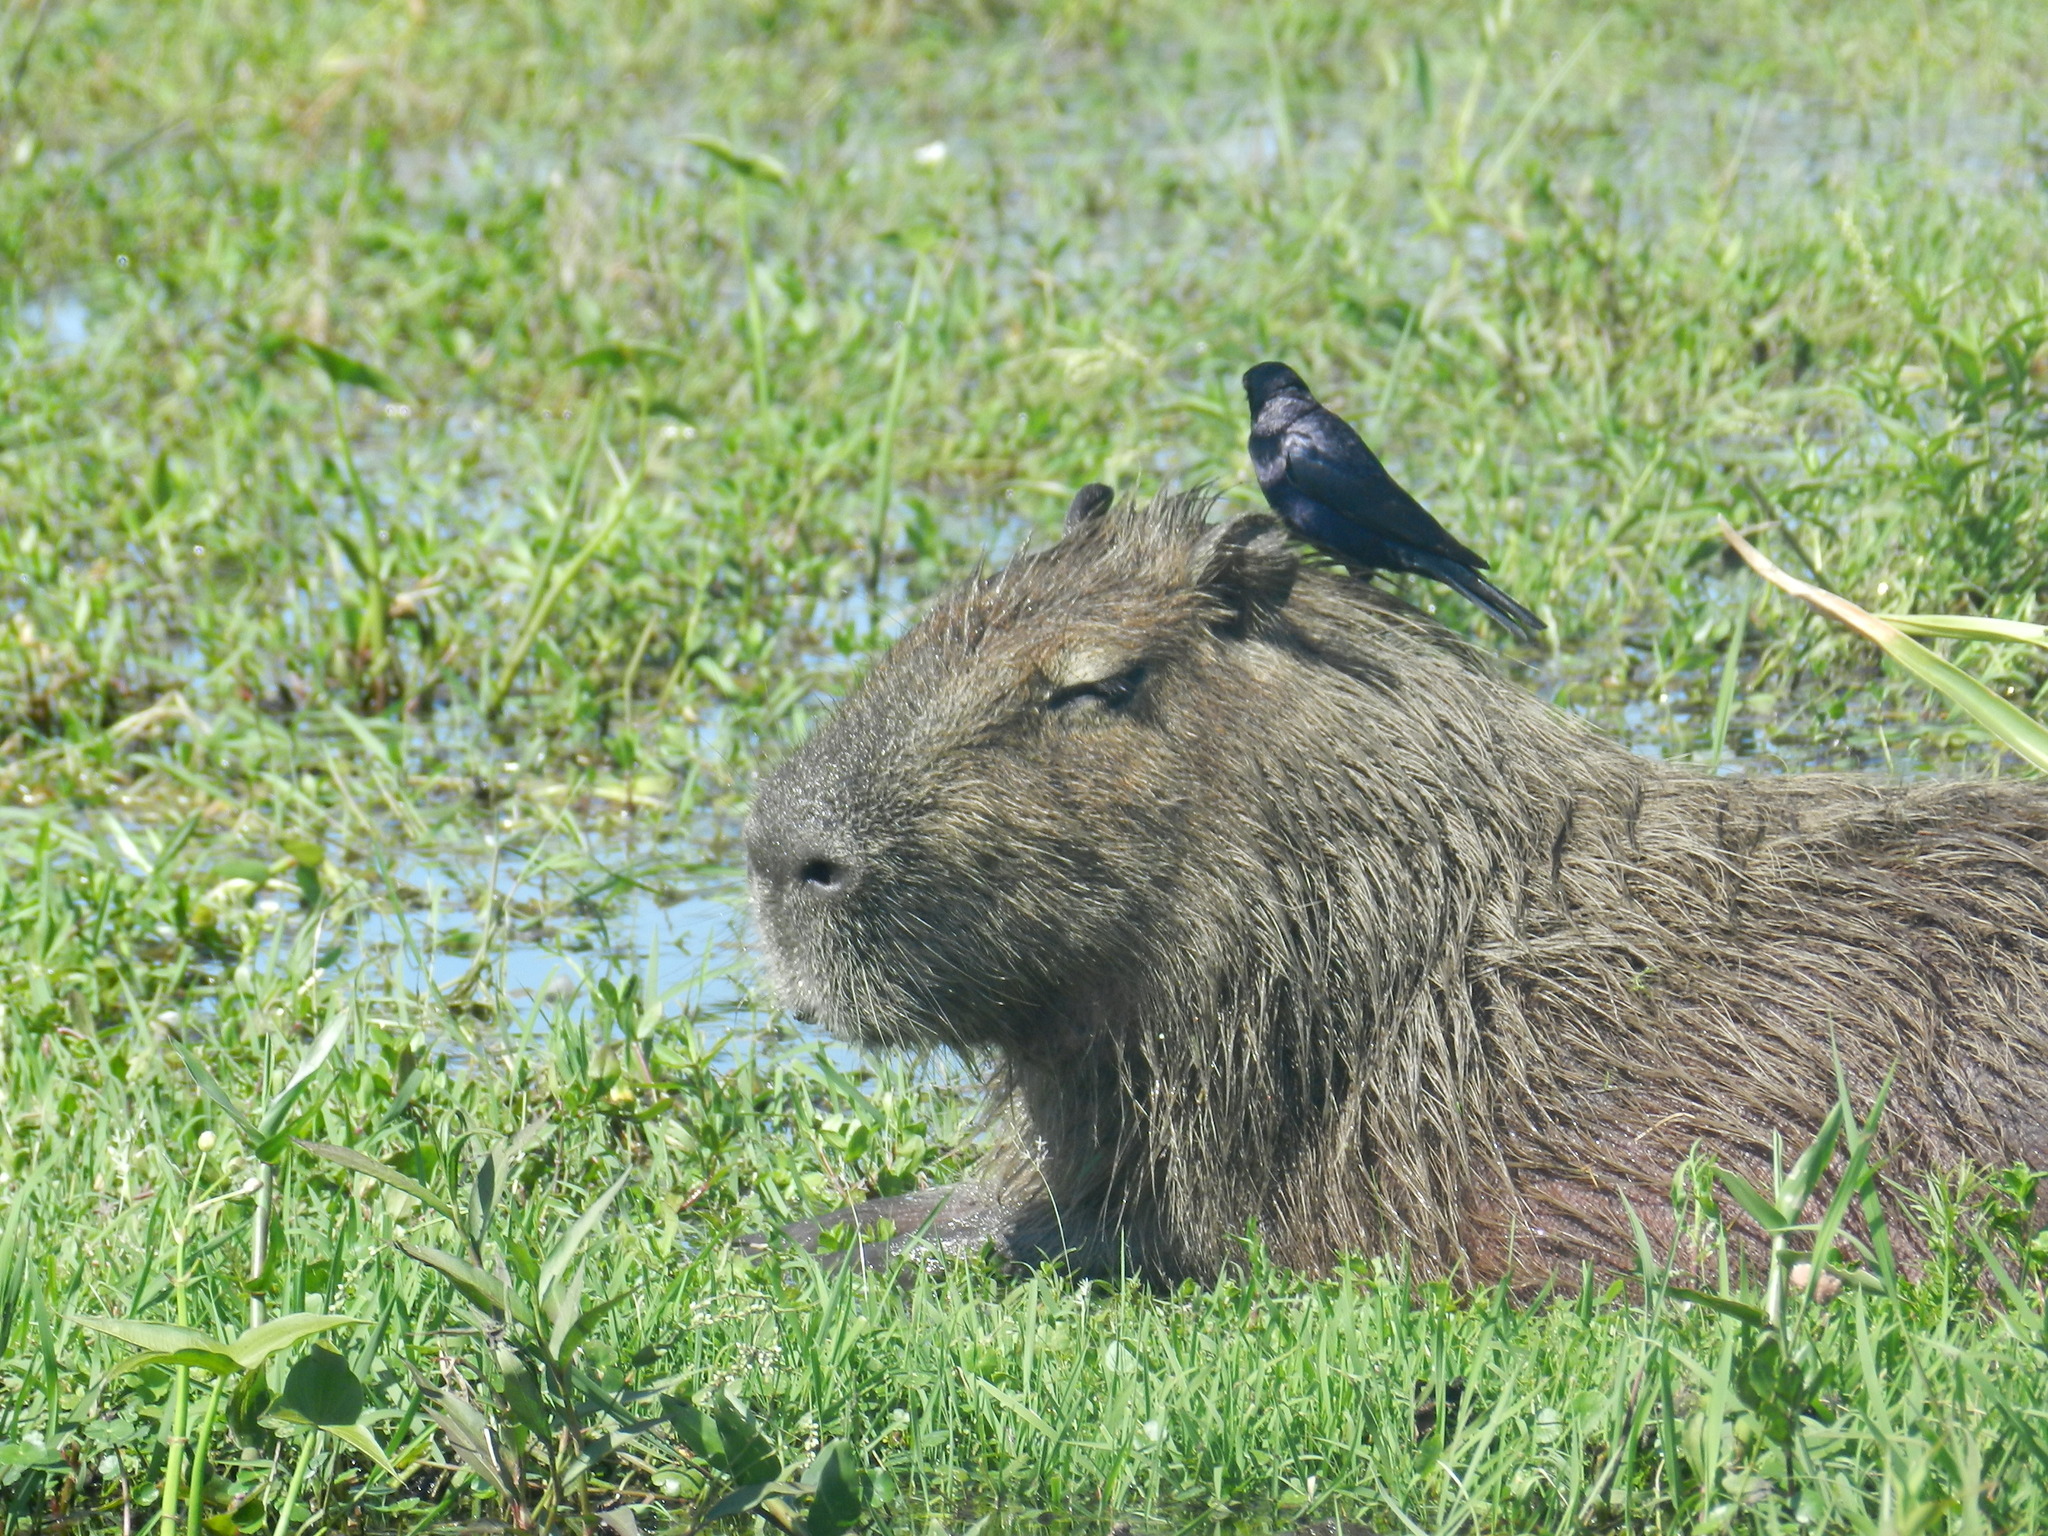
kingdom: Animalia
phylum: Chordata
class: Mammalia
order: Rodentia
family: Caviidae
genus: Hydrochoerus
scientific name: Hydrochoerus hydrochaeris
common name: Capybara
